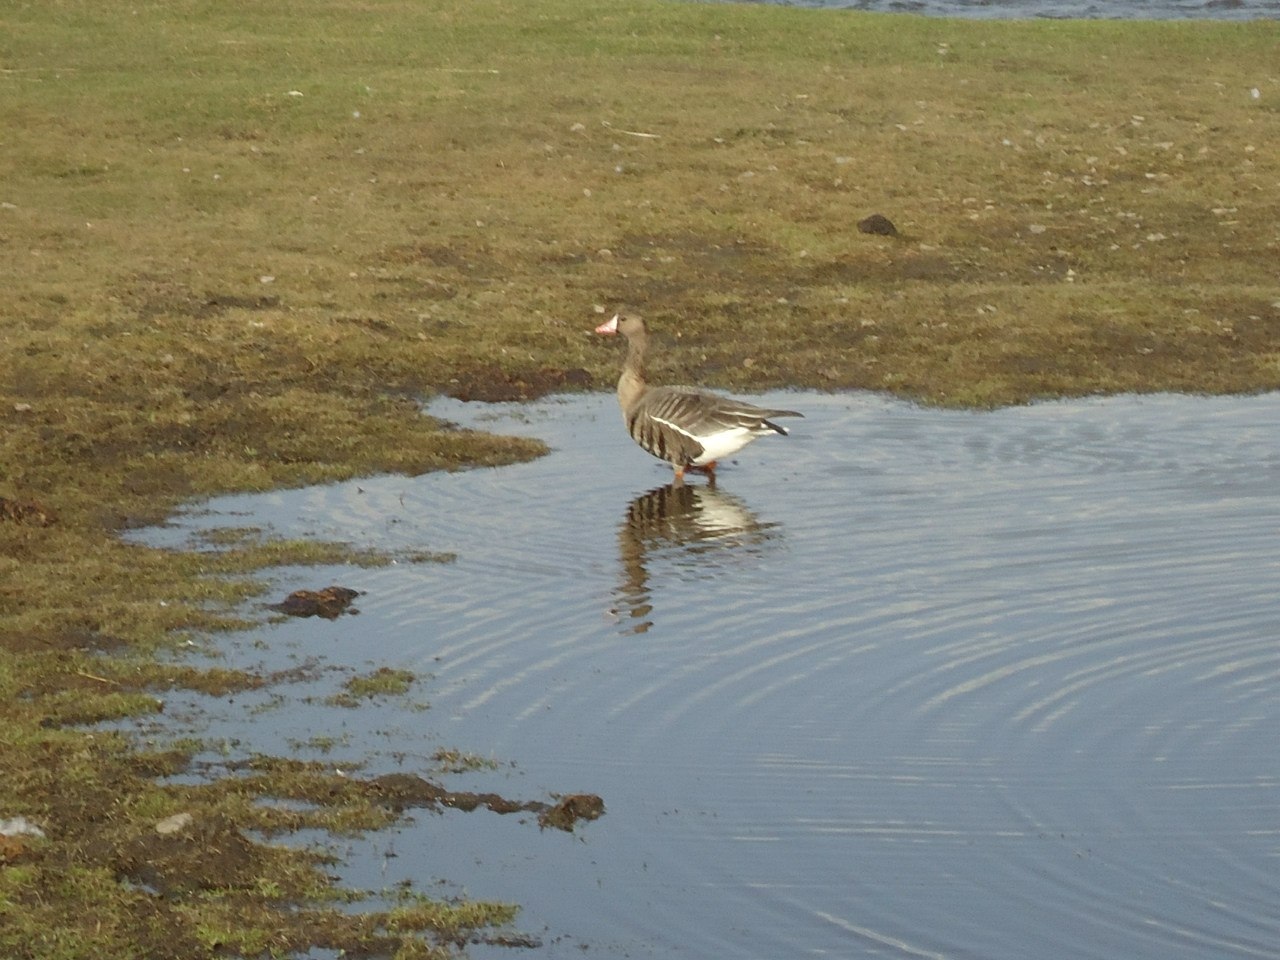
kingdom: Animalia
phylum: Chordata
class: Aves
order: Anseriformes
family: Anatidae
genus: Anser
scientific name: Anser albifrons
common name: Greater white-fronted goose
